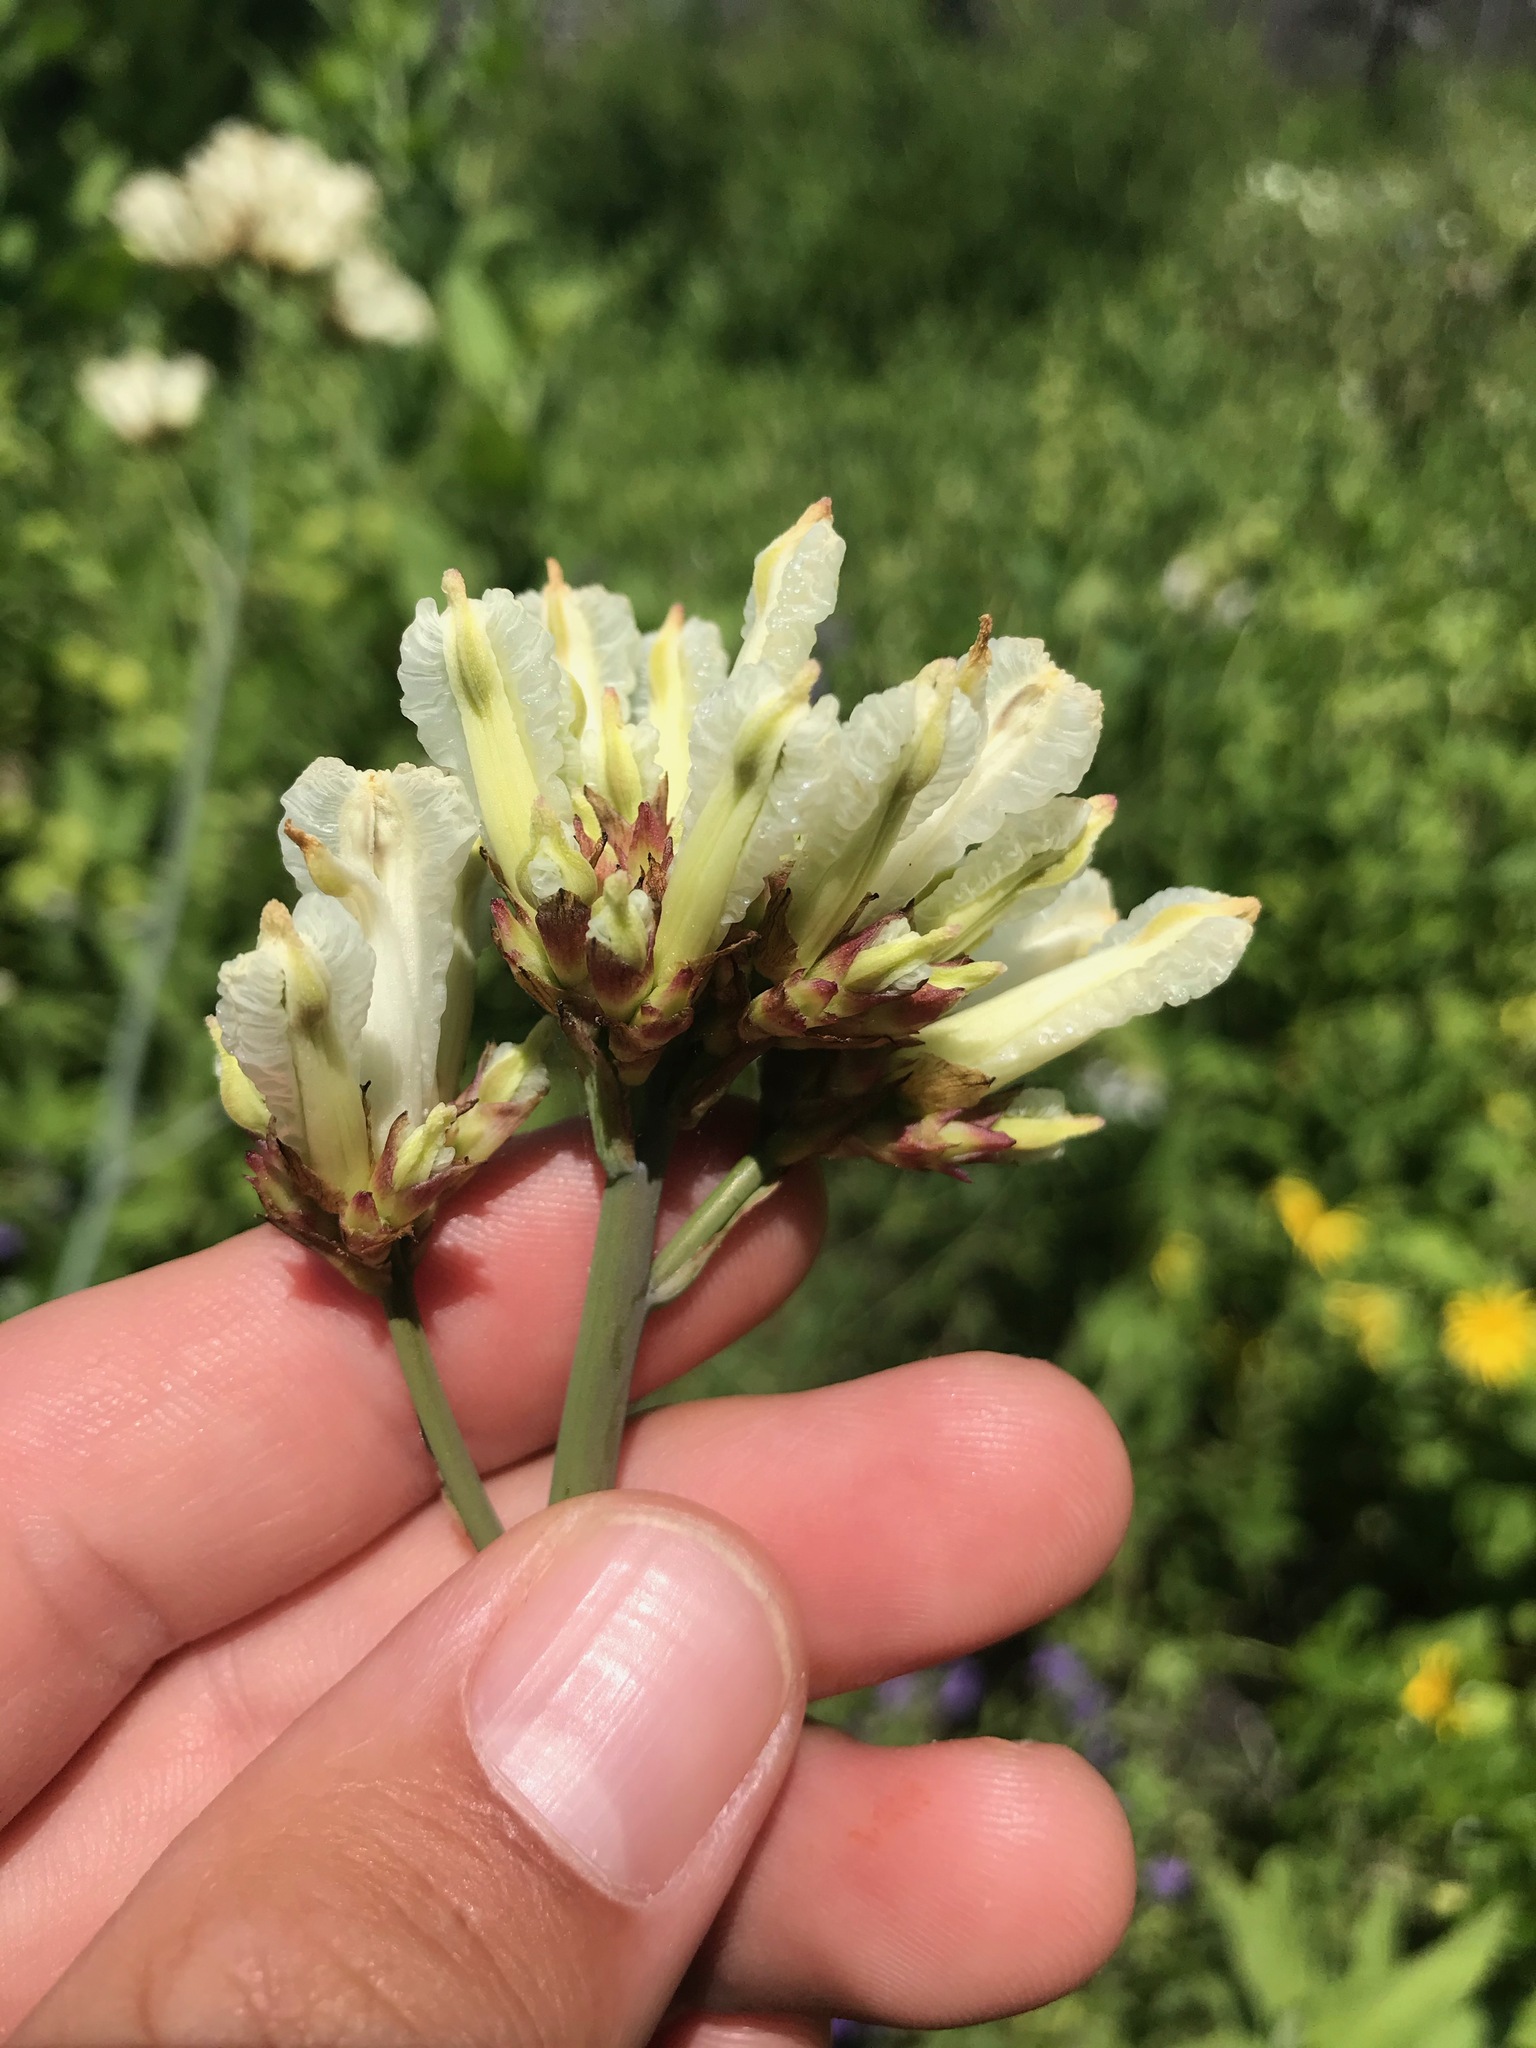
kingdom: Plantae
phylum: Tracheophyta
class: Magnoliopsida
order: Ranunculales
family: Papaveraceae
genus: Ehrendorferia
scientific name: Ehrendorferia ochroleuca
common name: White eardrops
